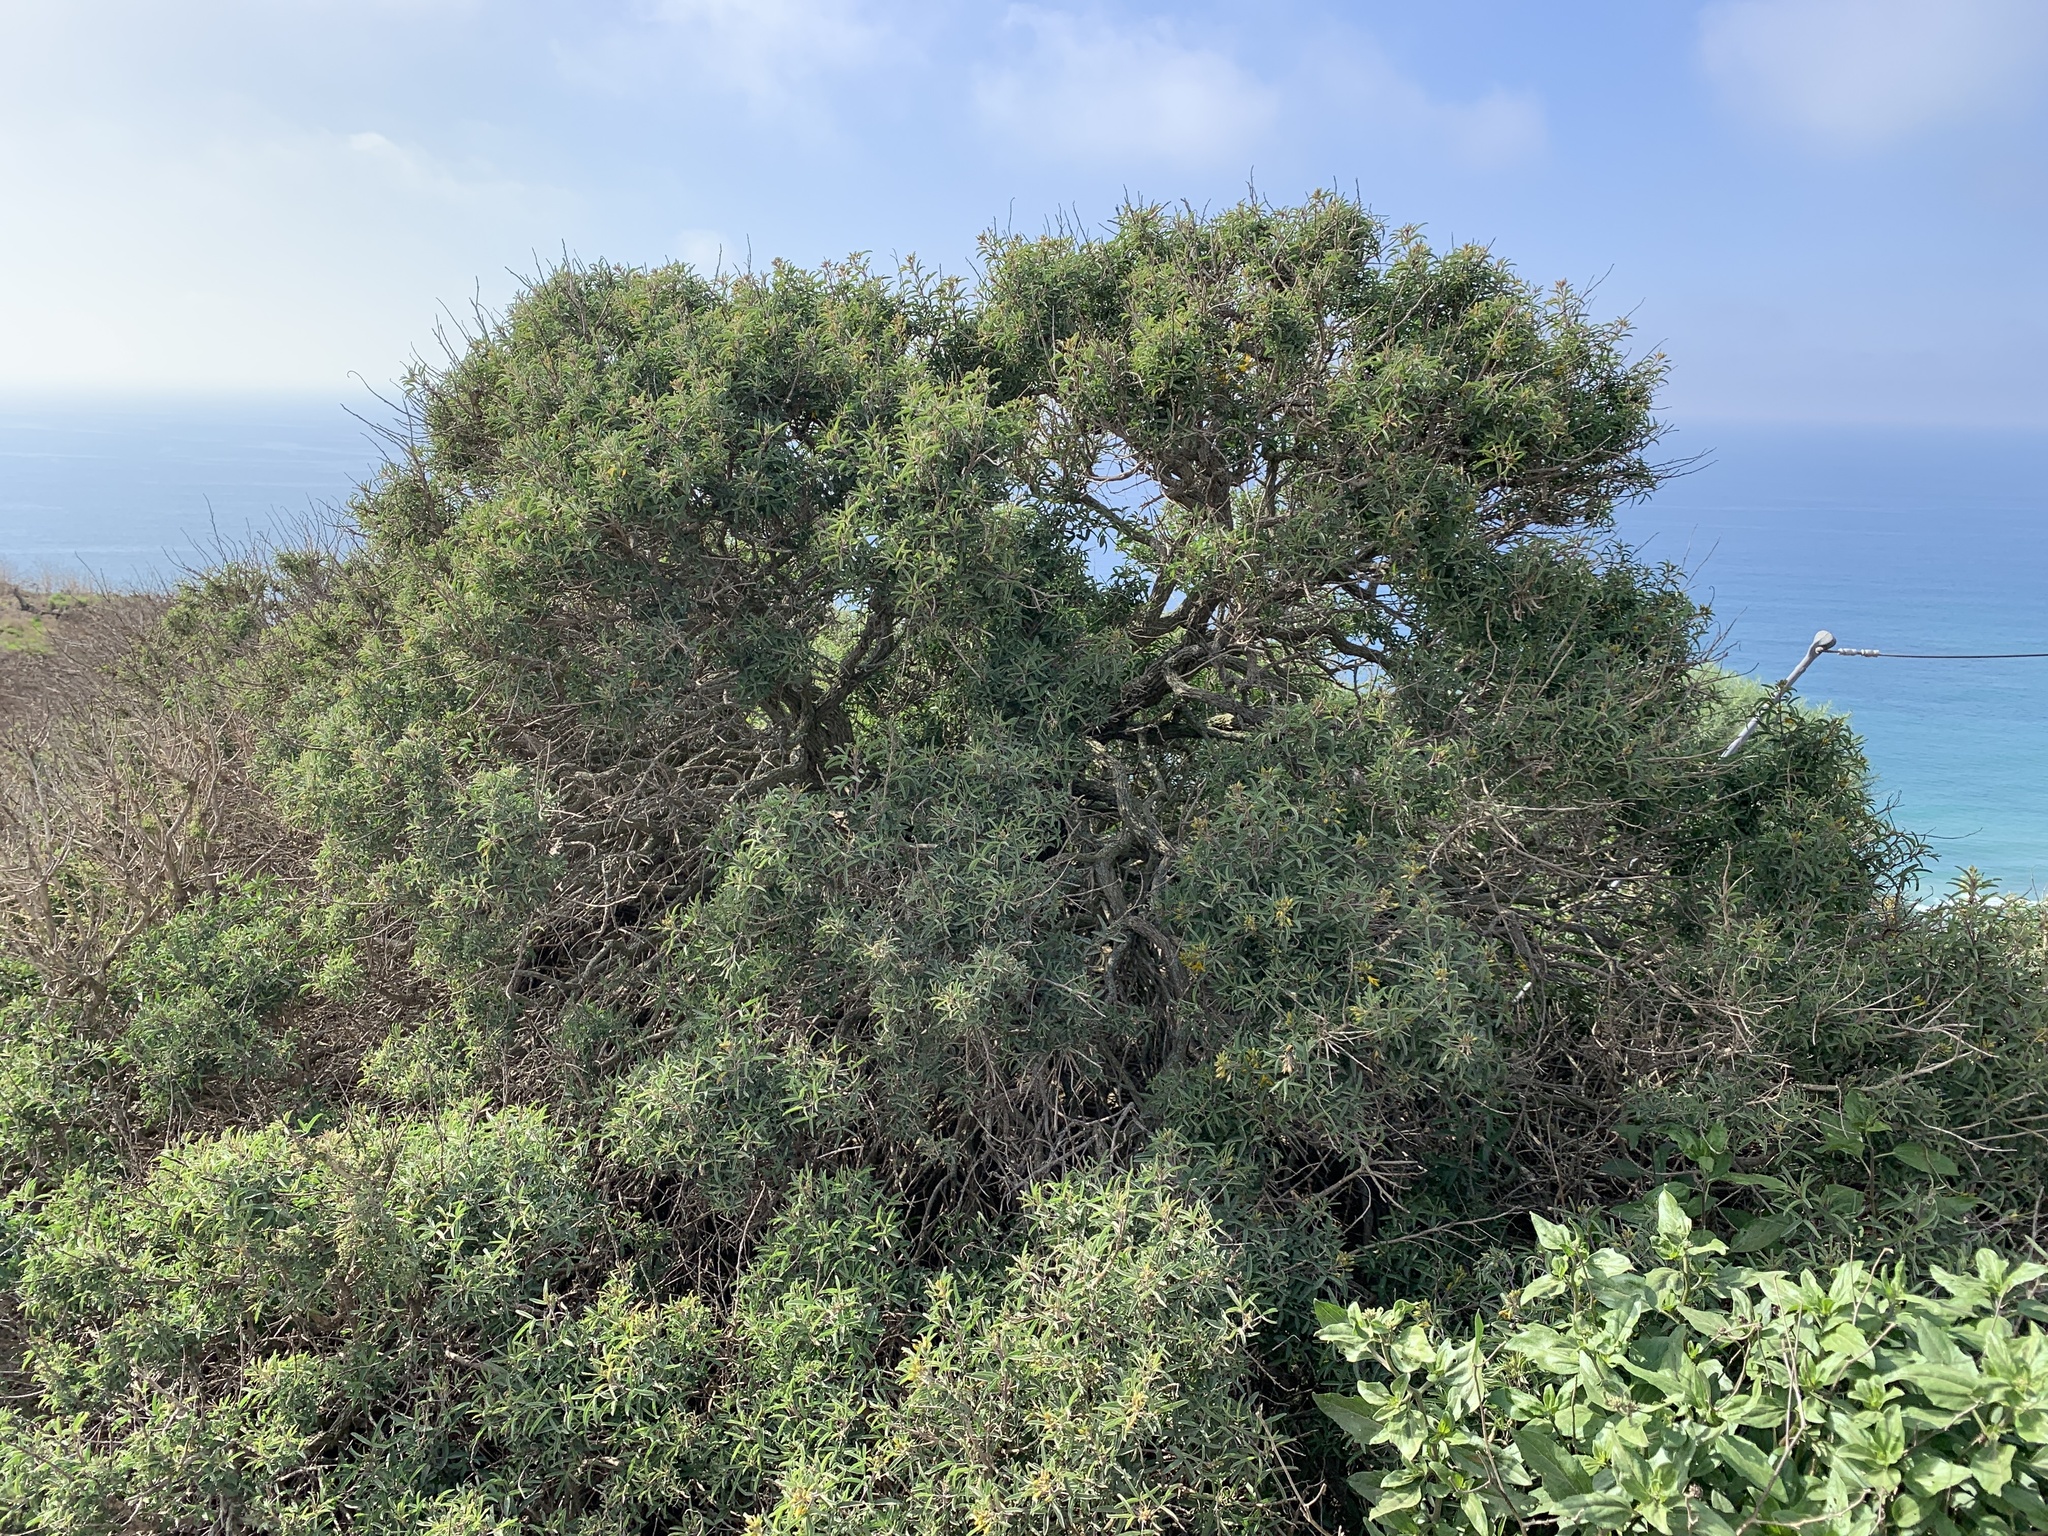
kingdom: Plantae
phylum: Tracheophyta
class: Magnoliopsida
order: Brassicales
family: Cleomaceae
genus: Cleomella
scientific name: Cleomella arborea
